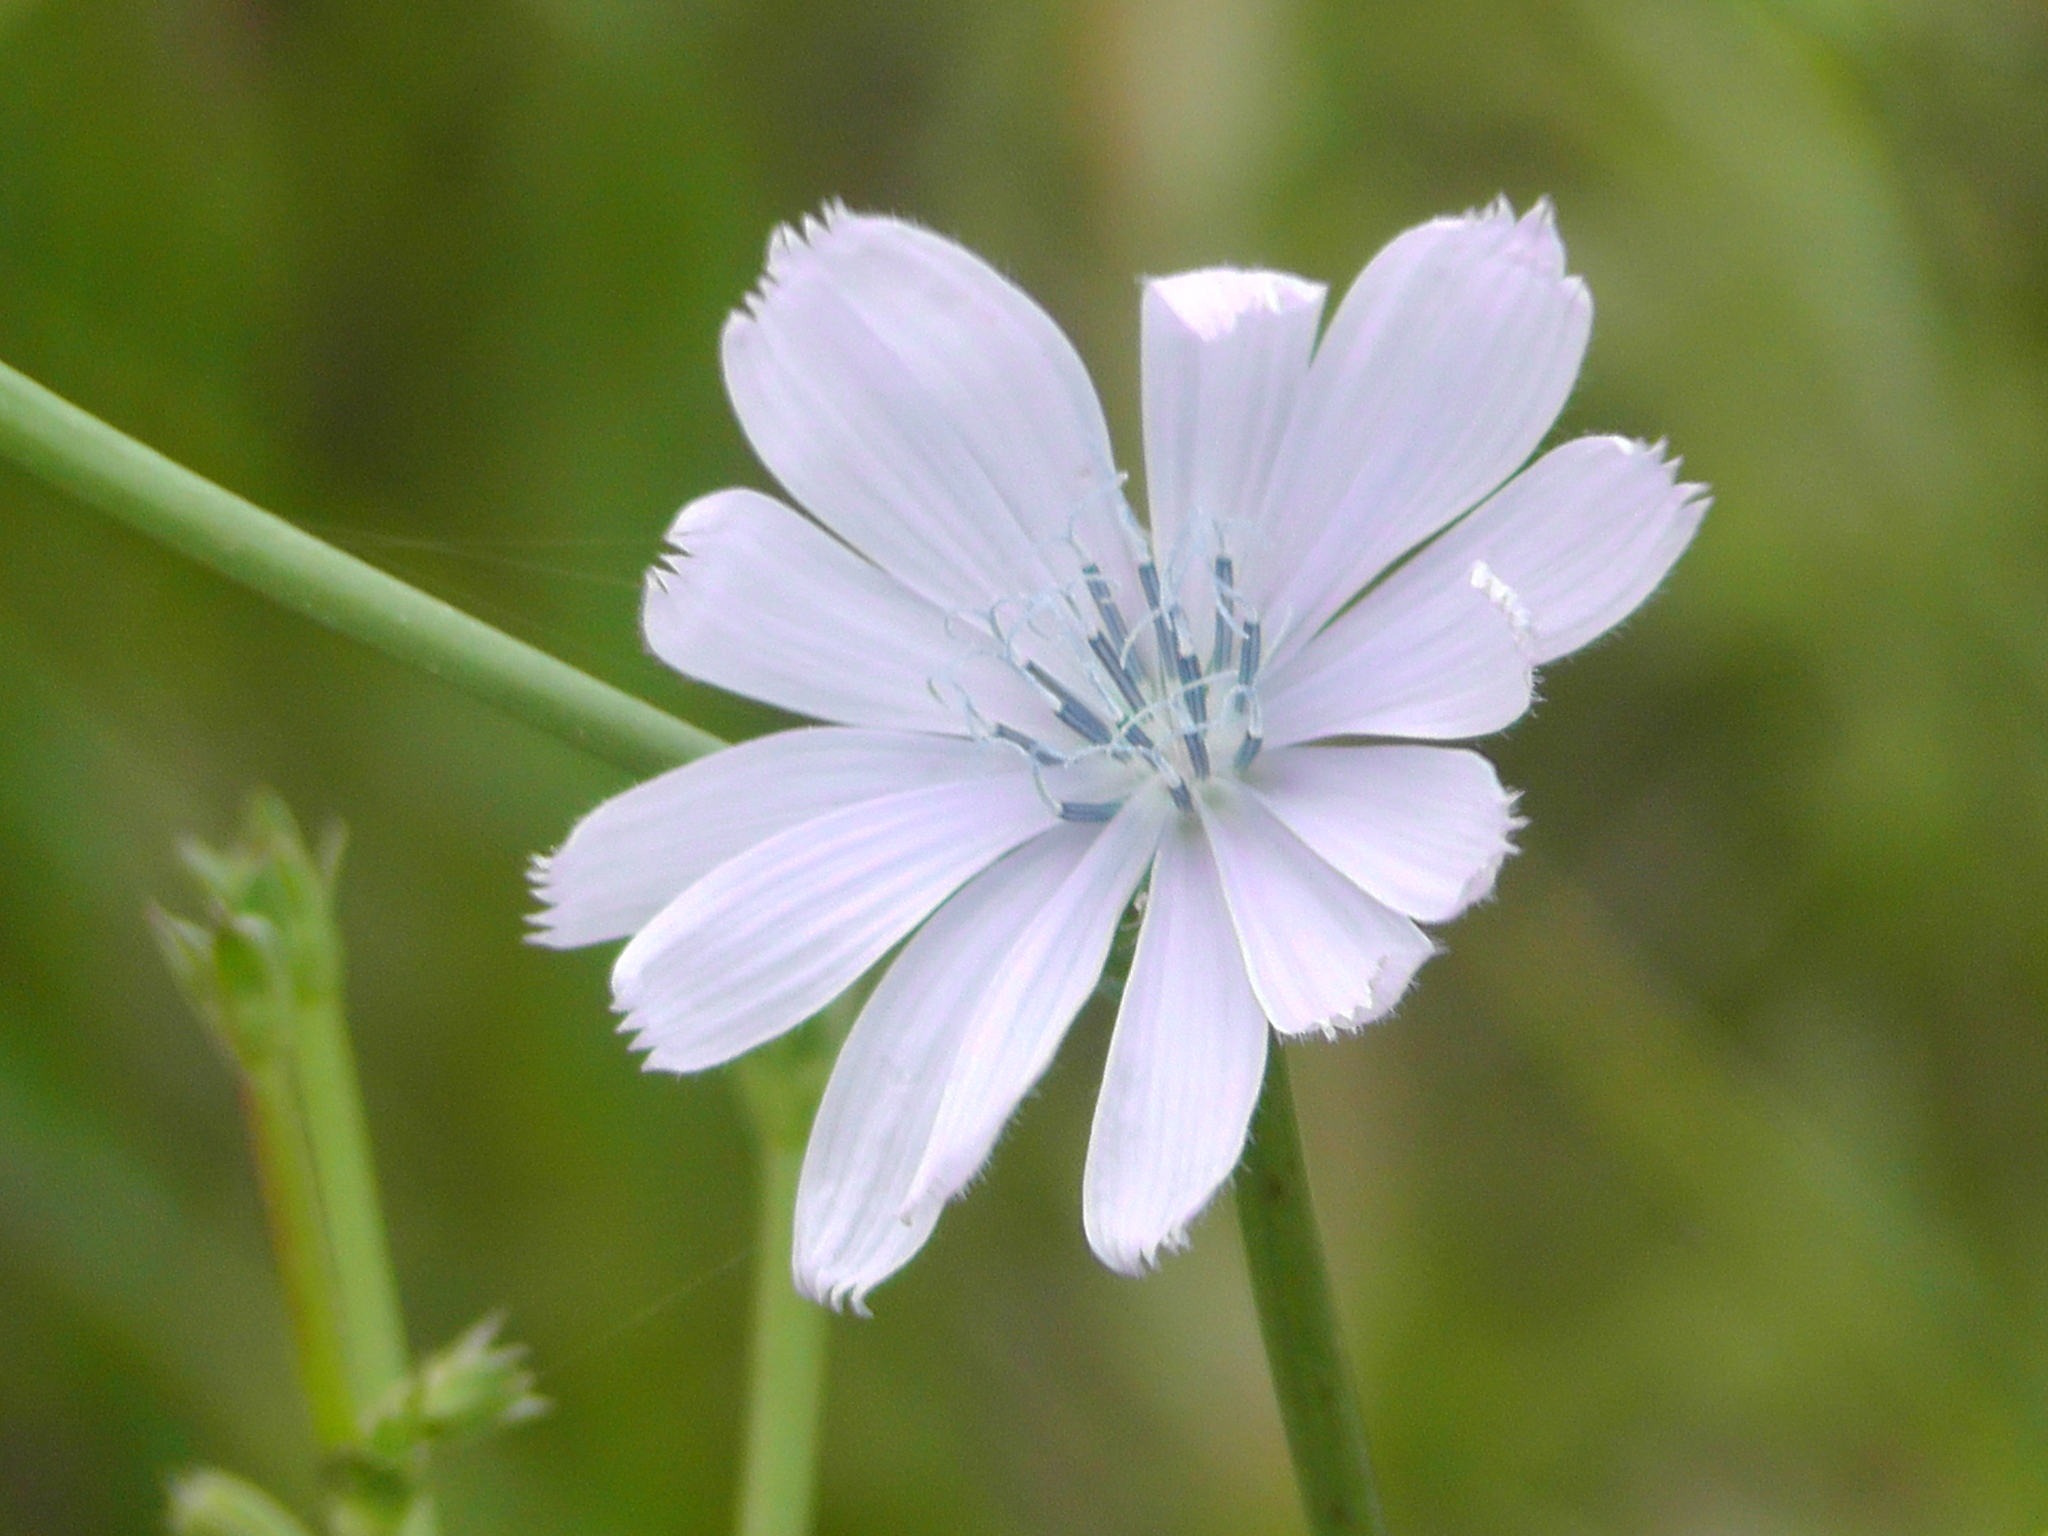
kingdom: Plantae
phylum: Tracheophyta
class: Magnoliopsida
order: Asterales
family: Asteraceae
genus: Cichorium
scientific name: Cichorium intybus
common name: Chicory
